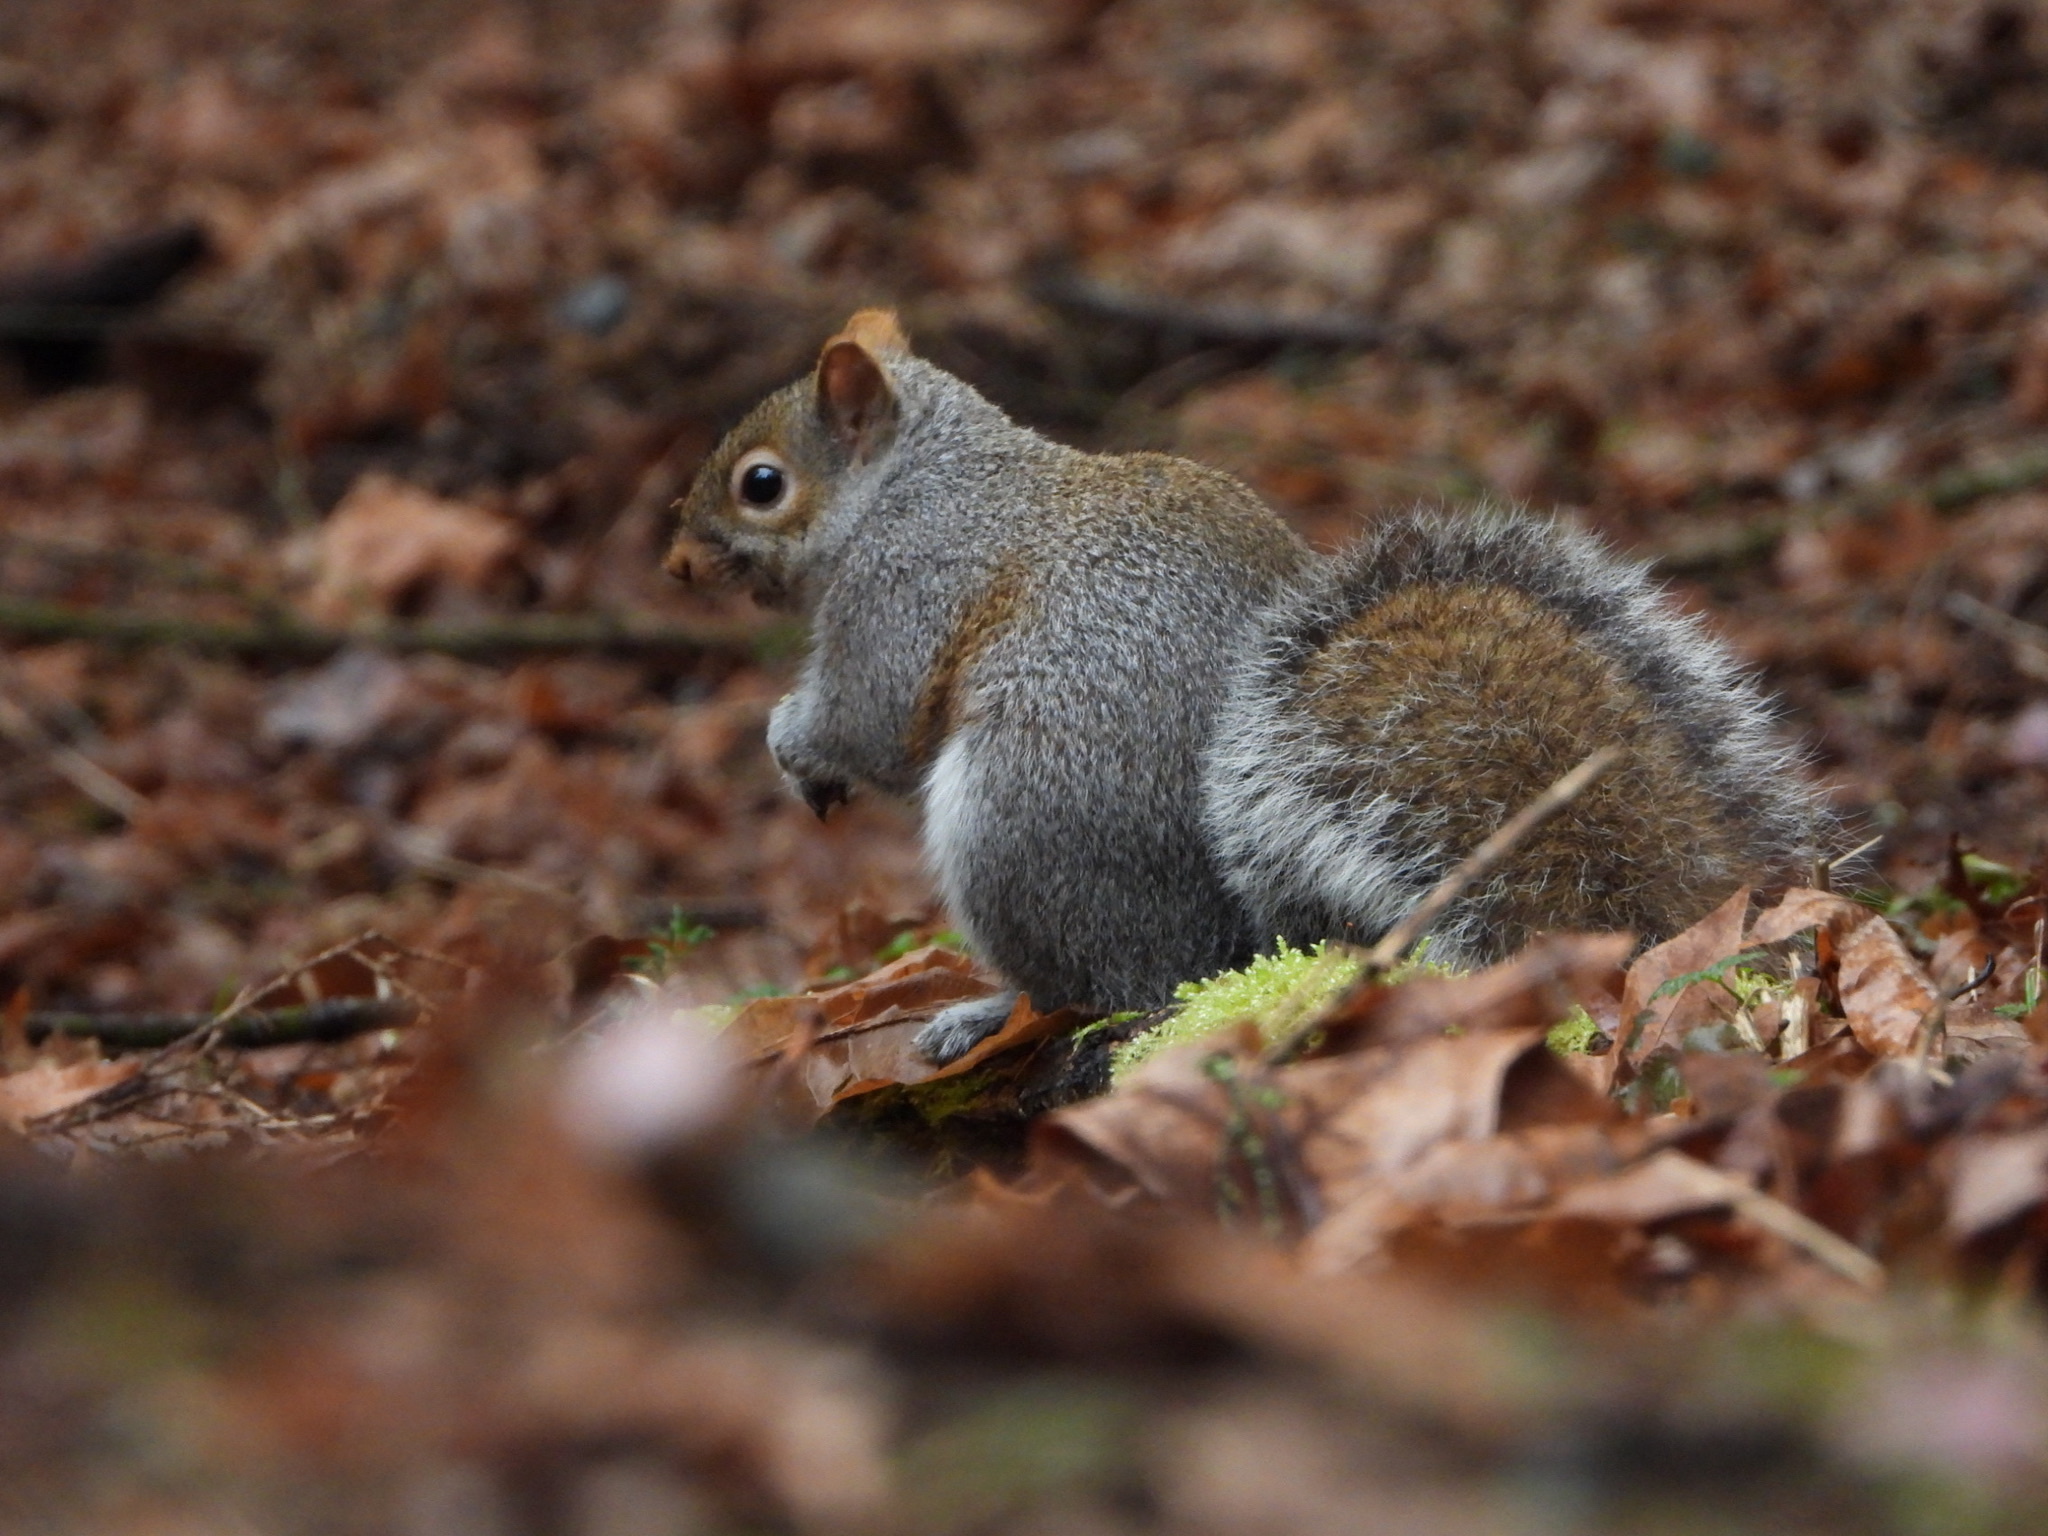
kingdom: Animalia
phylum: Chordata
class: Mammalia
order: Rodentia
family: Sciuridae
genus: Sciurus
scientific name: Sciurus carolinensis
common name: Eastern gray squirrel
